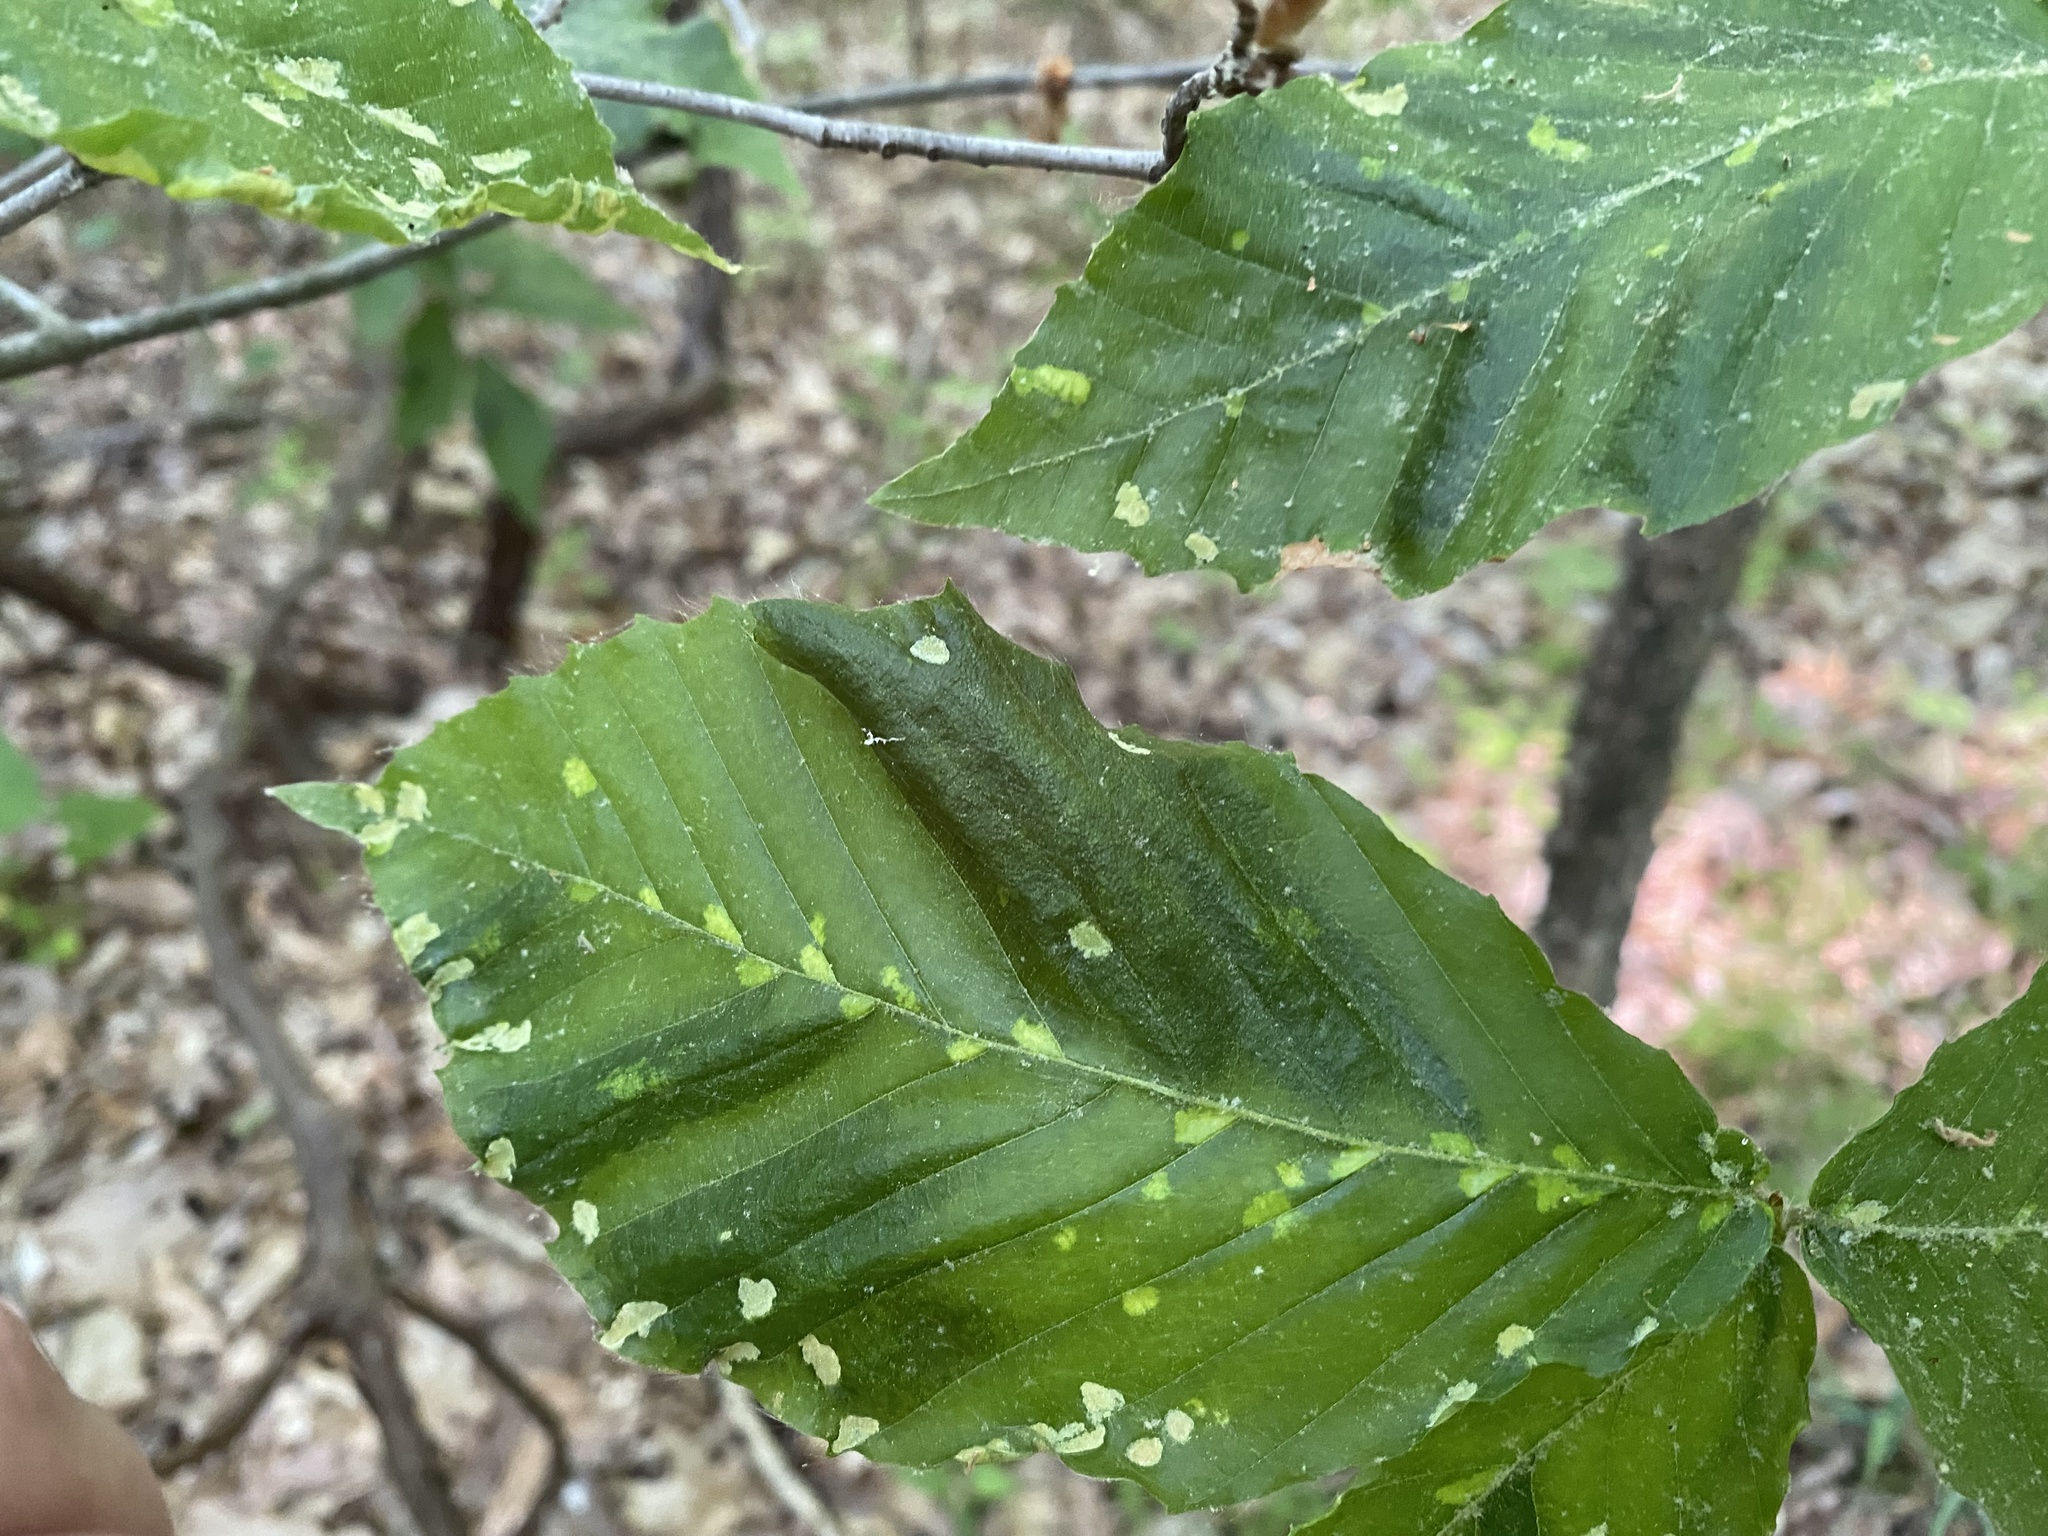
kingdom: Animalia
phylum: Nematoda
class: Chromadorea
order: Rhabditida
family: Anguinidae
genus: Litylenchus
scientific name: Litylenchus crenatae
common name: Beech leaf disease
